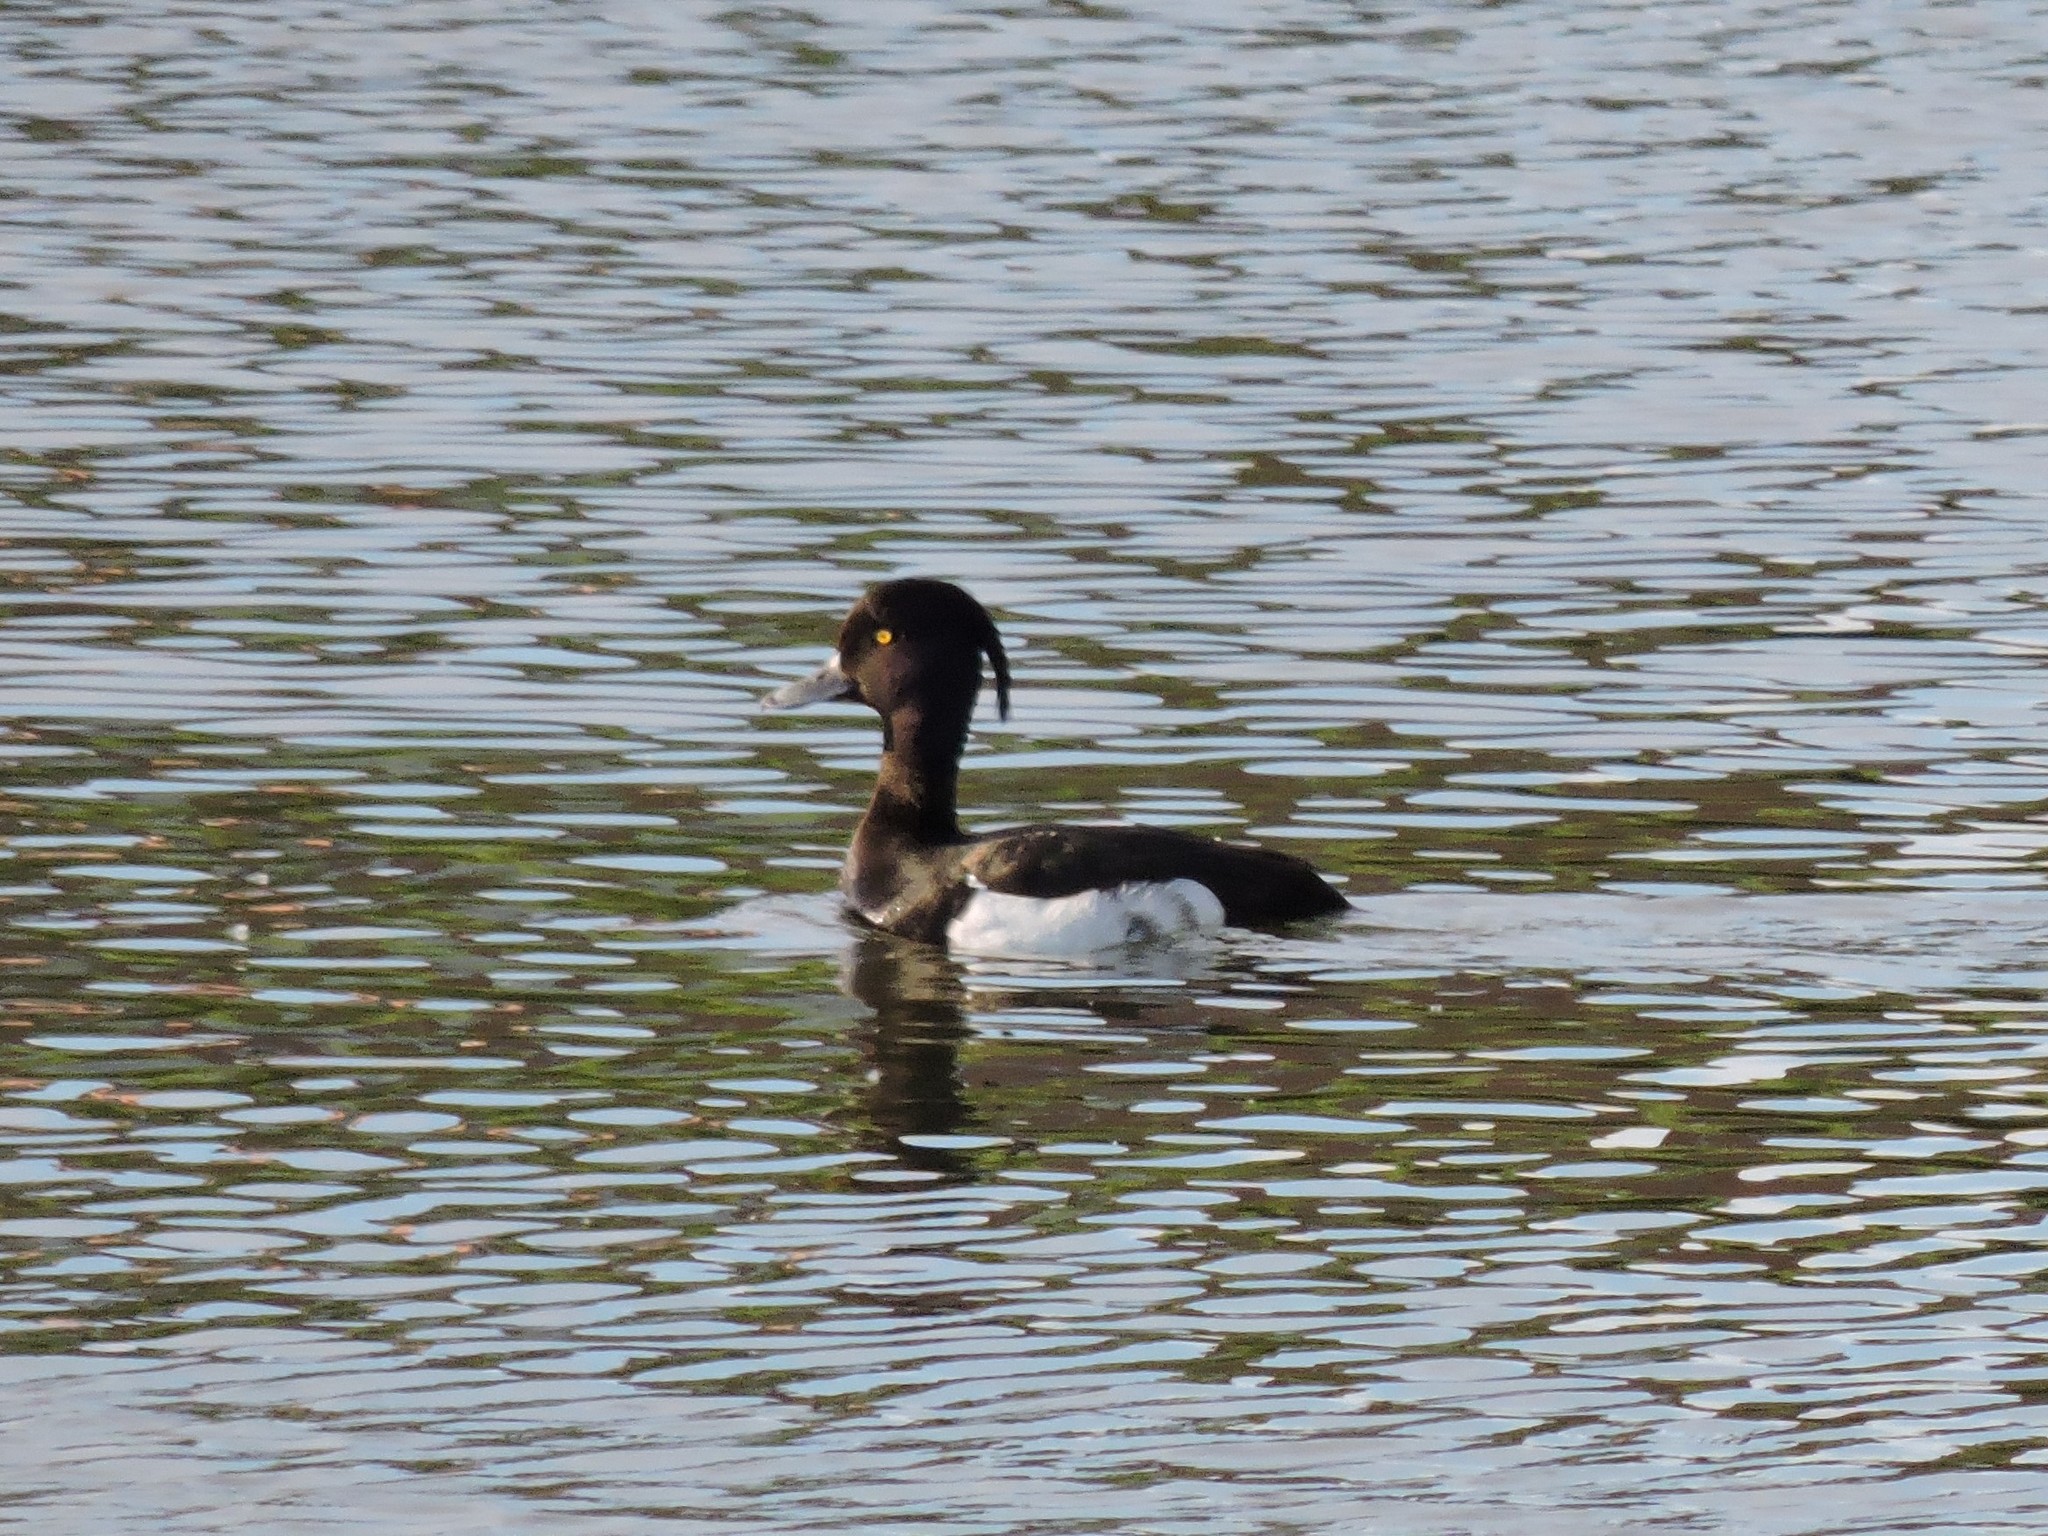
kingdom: Animalia
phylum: Chordata
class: Aves
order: Anseriformes
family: Anatidae
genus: Aythya
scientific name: Aythya fuligula
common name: Tufted duck
